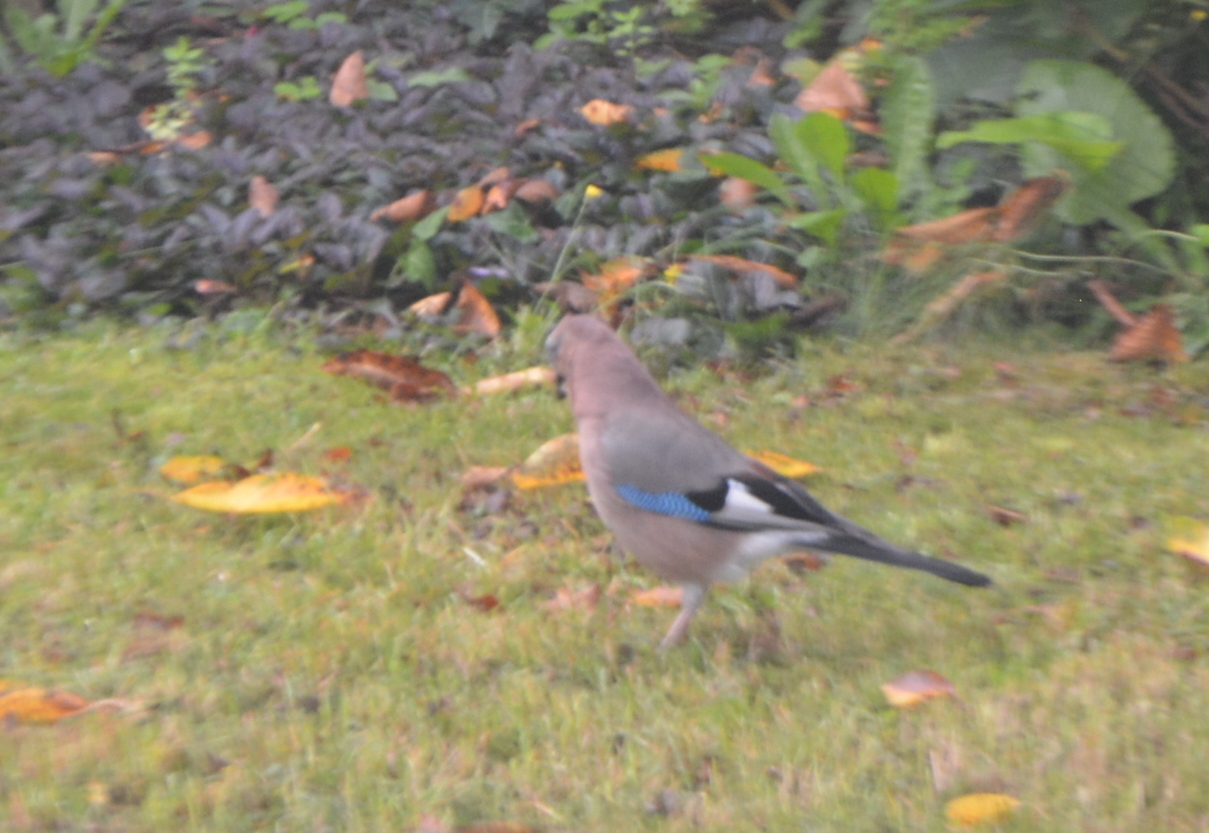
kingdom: Animalia
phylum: Chordata
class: Aves
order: Passeriformes
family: Corvidae
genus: Garrulus
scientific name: Garrulus glandarius
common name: Eurasian jay
